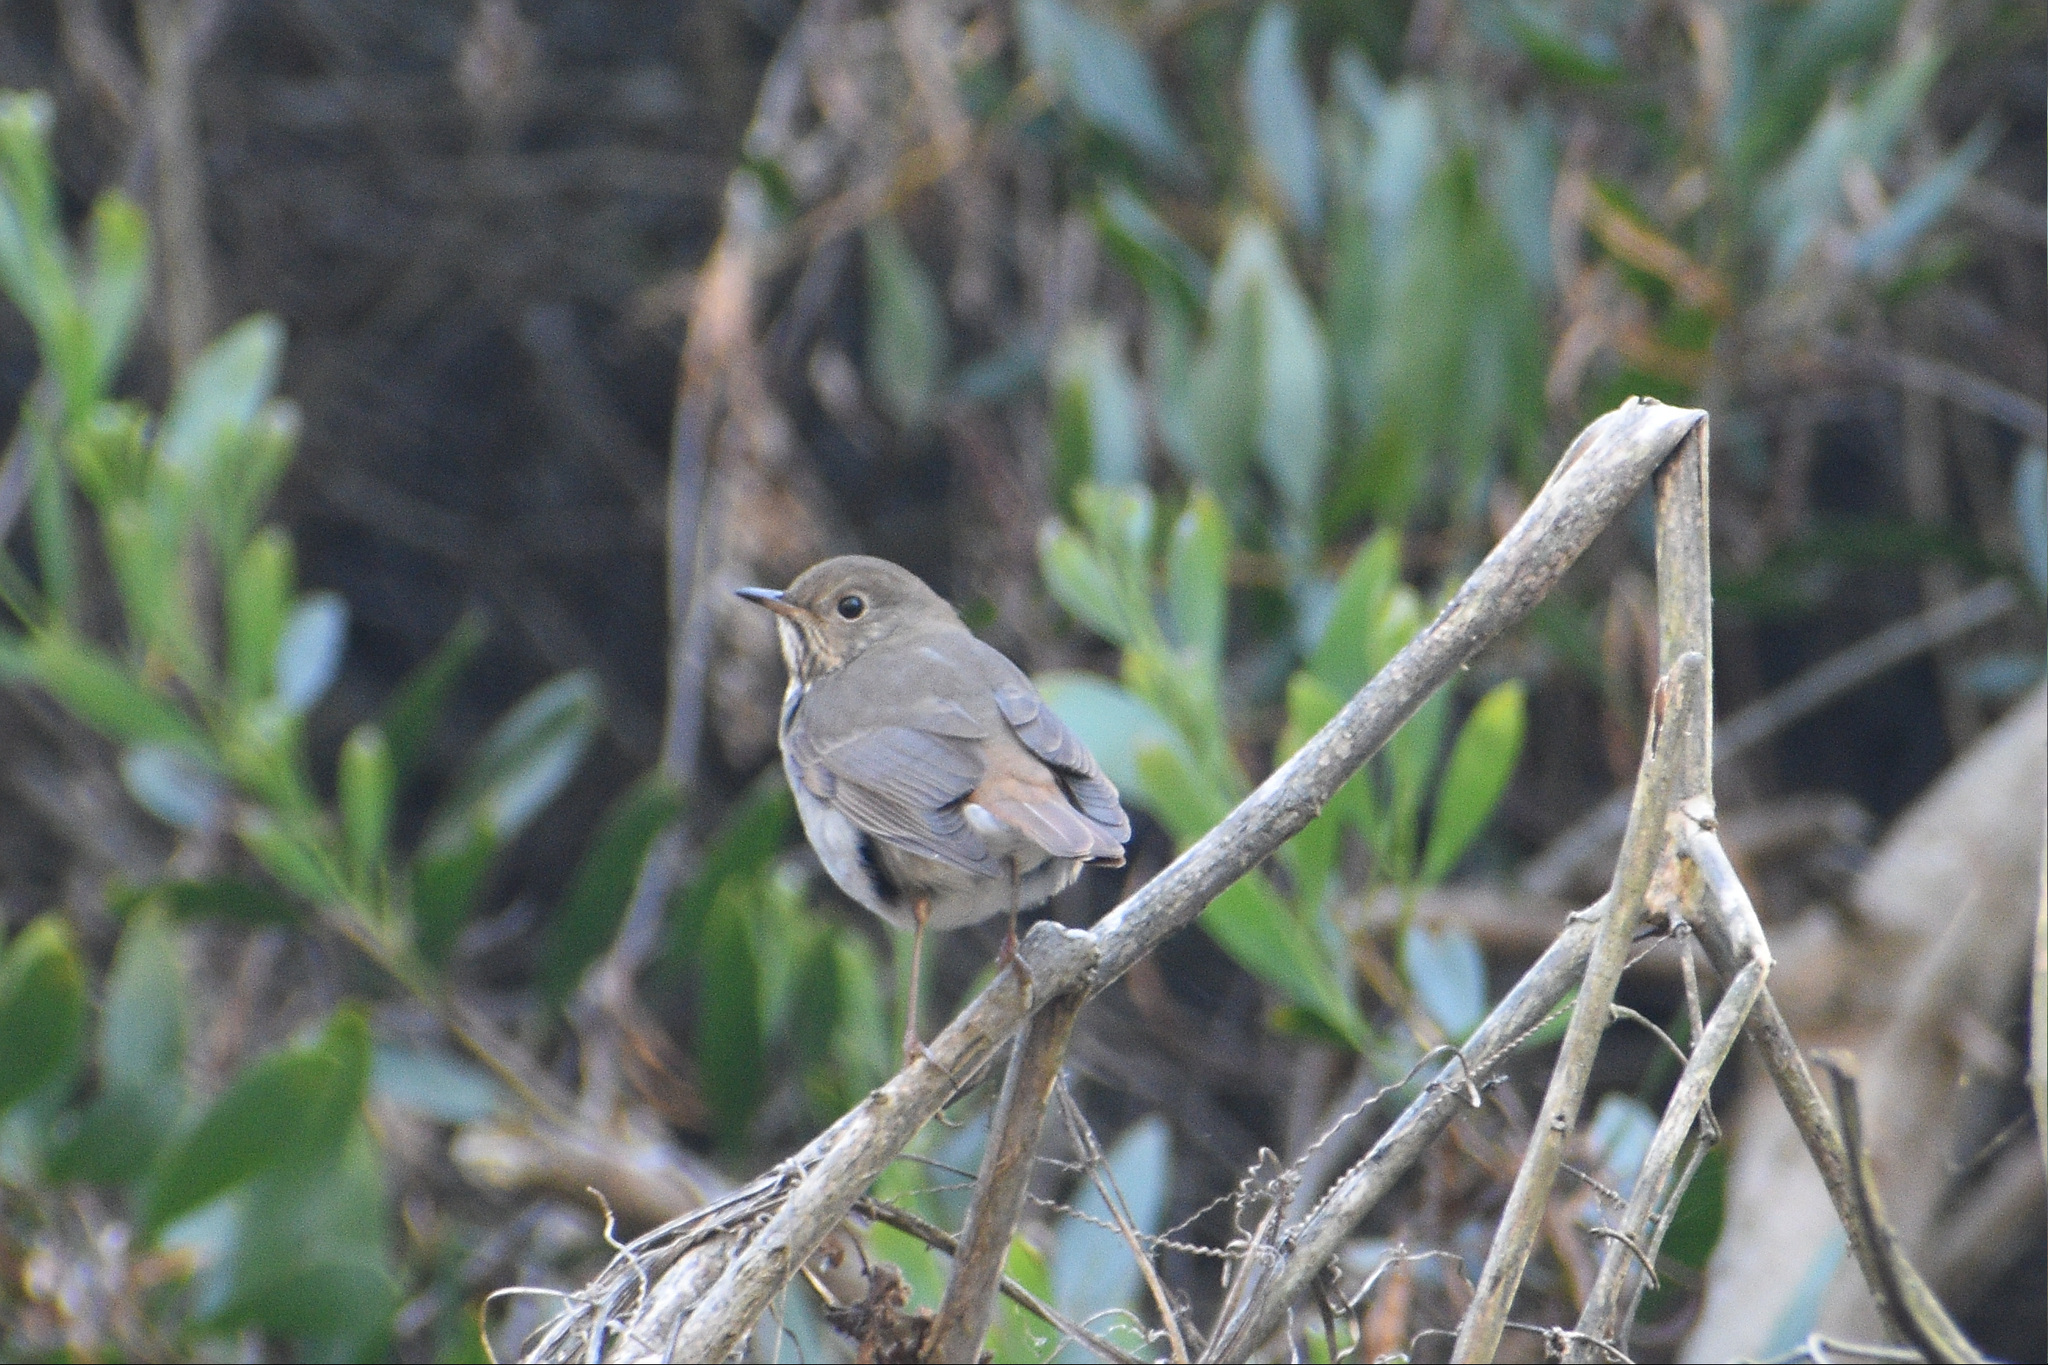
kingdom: Animalia
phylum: Chordata
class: Aves
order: Passeriformes
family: Turdidae
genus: Catharus
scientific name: Catharus guttatus
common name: Hermit thrush
